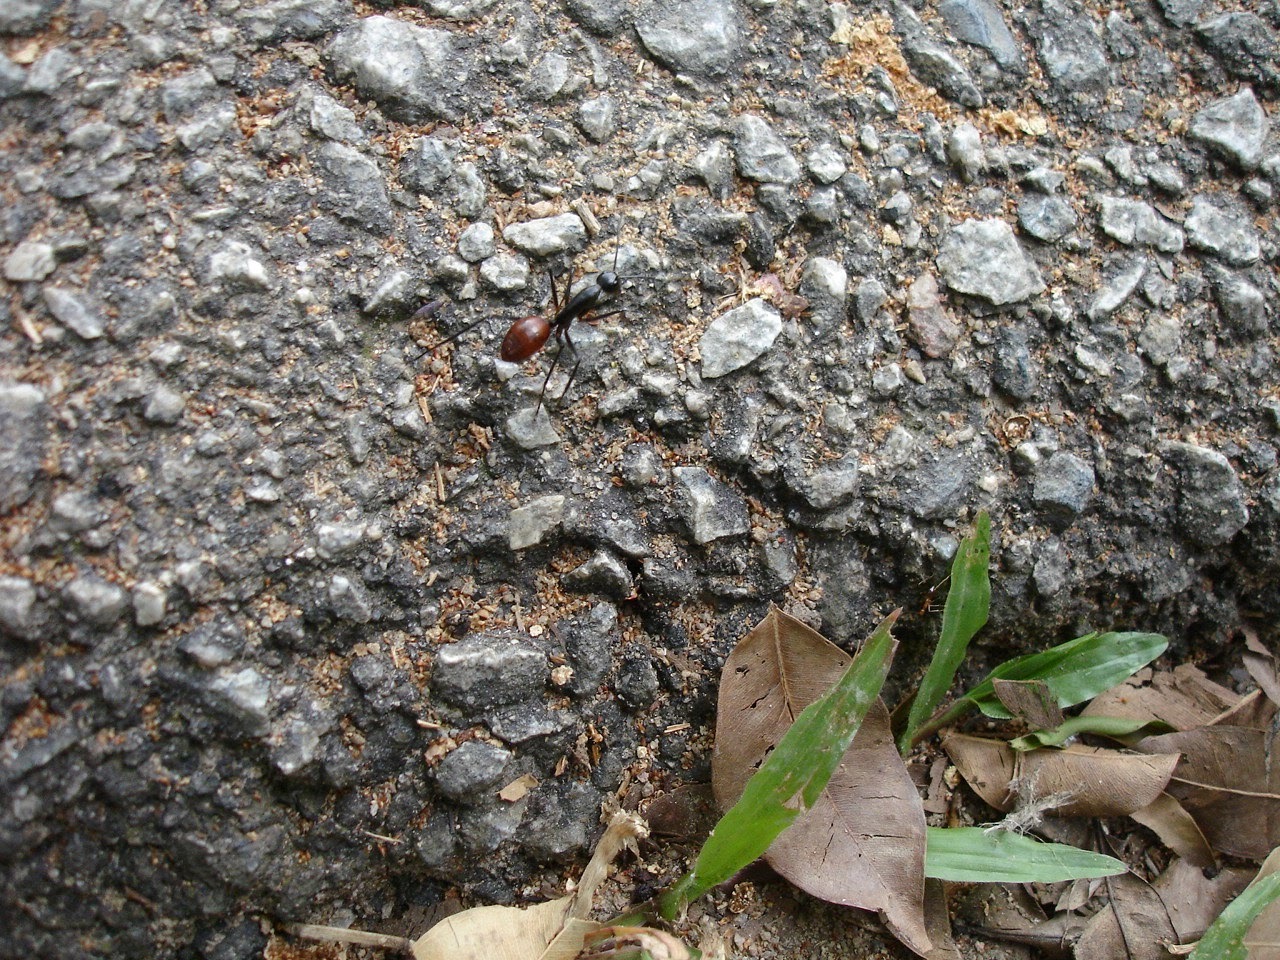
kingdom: Animalia
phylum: Arthropoda
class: Insecta
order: Hymenoptera
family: Formicidae
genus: Dinomyrmex
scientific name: Dinomyrmex
